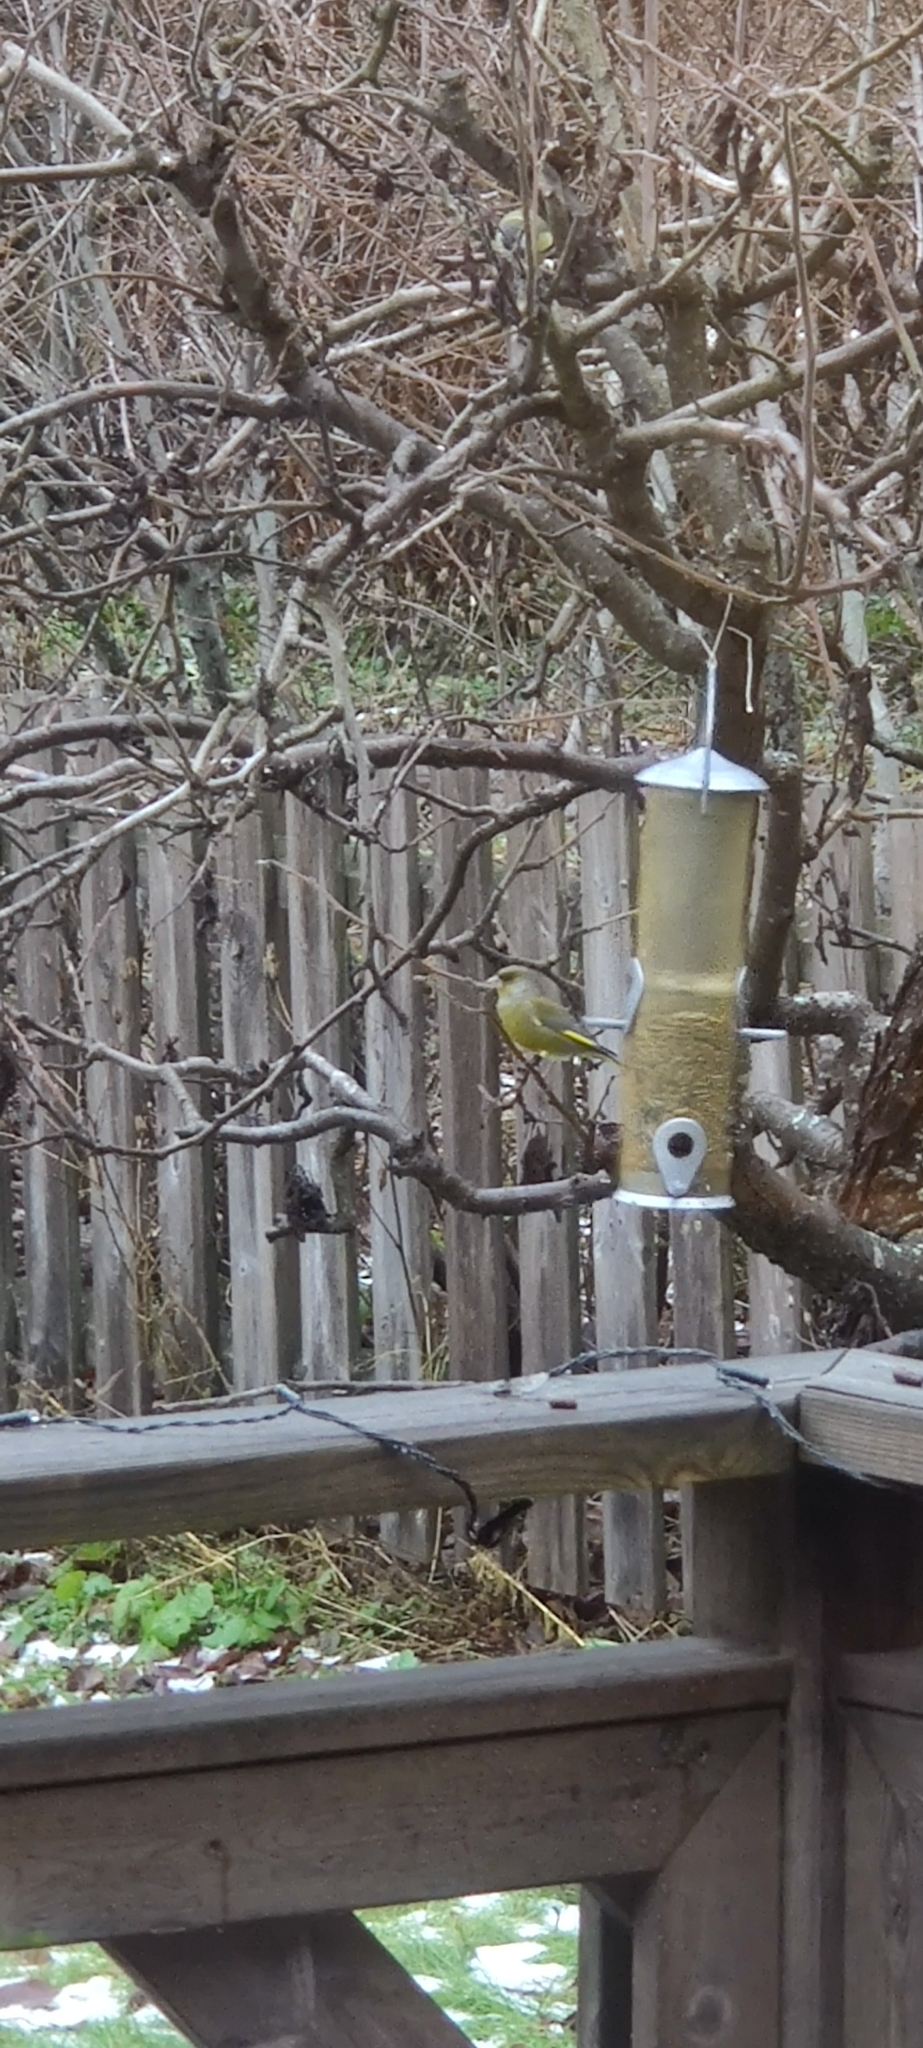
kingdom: Plantae
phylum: Tracheophyta
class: Liliopsida
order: Poales
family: Poaceae
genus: Chloris
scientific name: Chloris chloris
